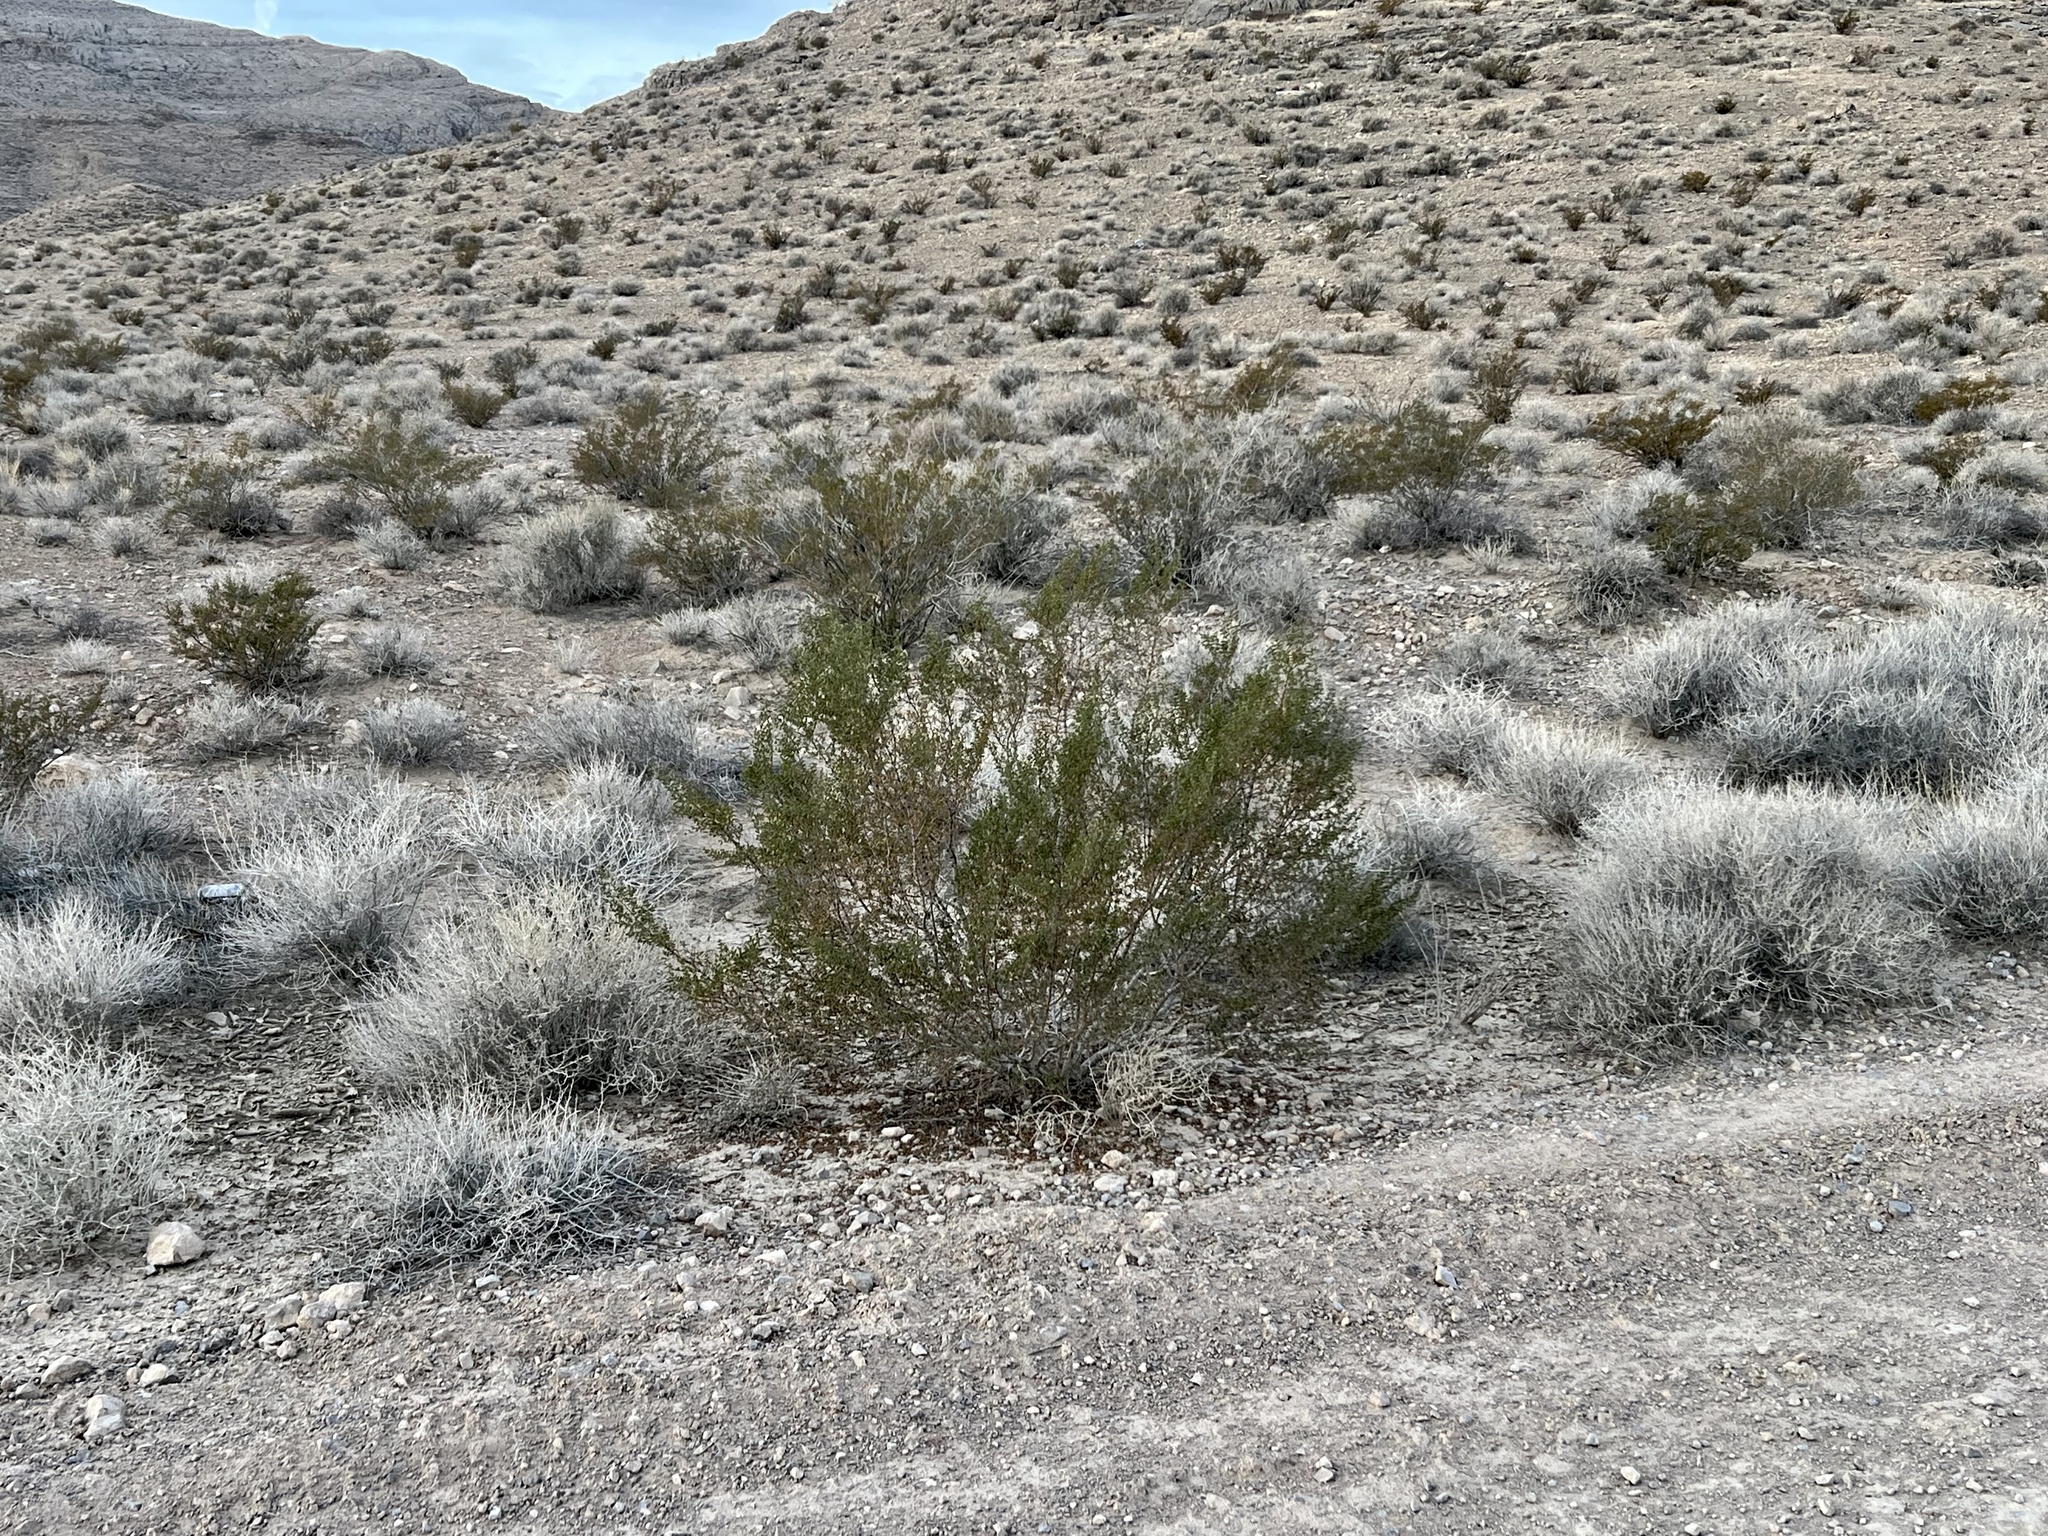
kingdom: Plantae
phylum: Tracheophyta
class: Magnoliopsida
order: Zygophyllales
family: Zygophyllaceae
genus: Larrea
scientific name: Larrea tridentata
